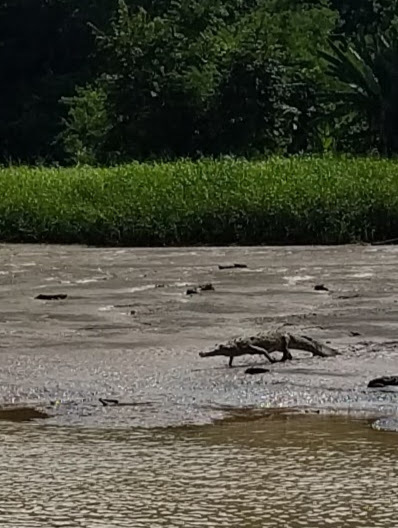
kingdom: Animalia
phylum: Chordata
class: Crocodylia
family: Crocodylidae
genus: Crocodylus
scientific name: Crocodylus acutus
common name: American crocodile
